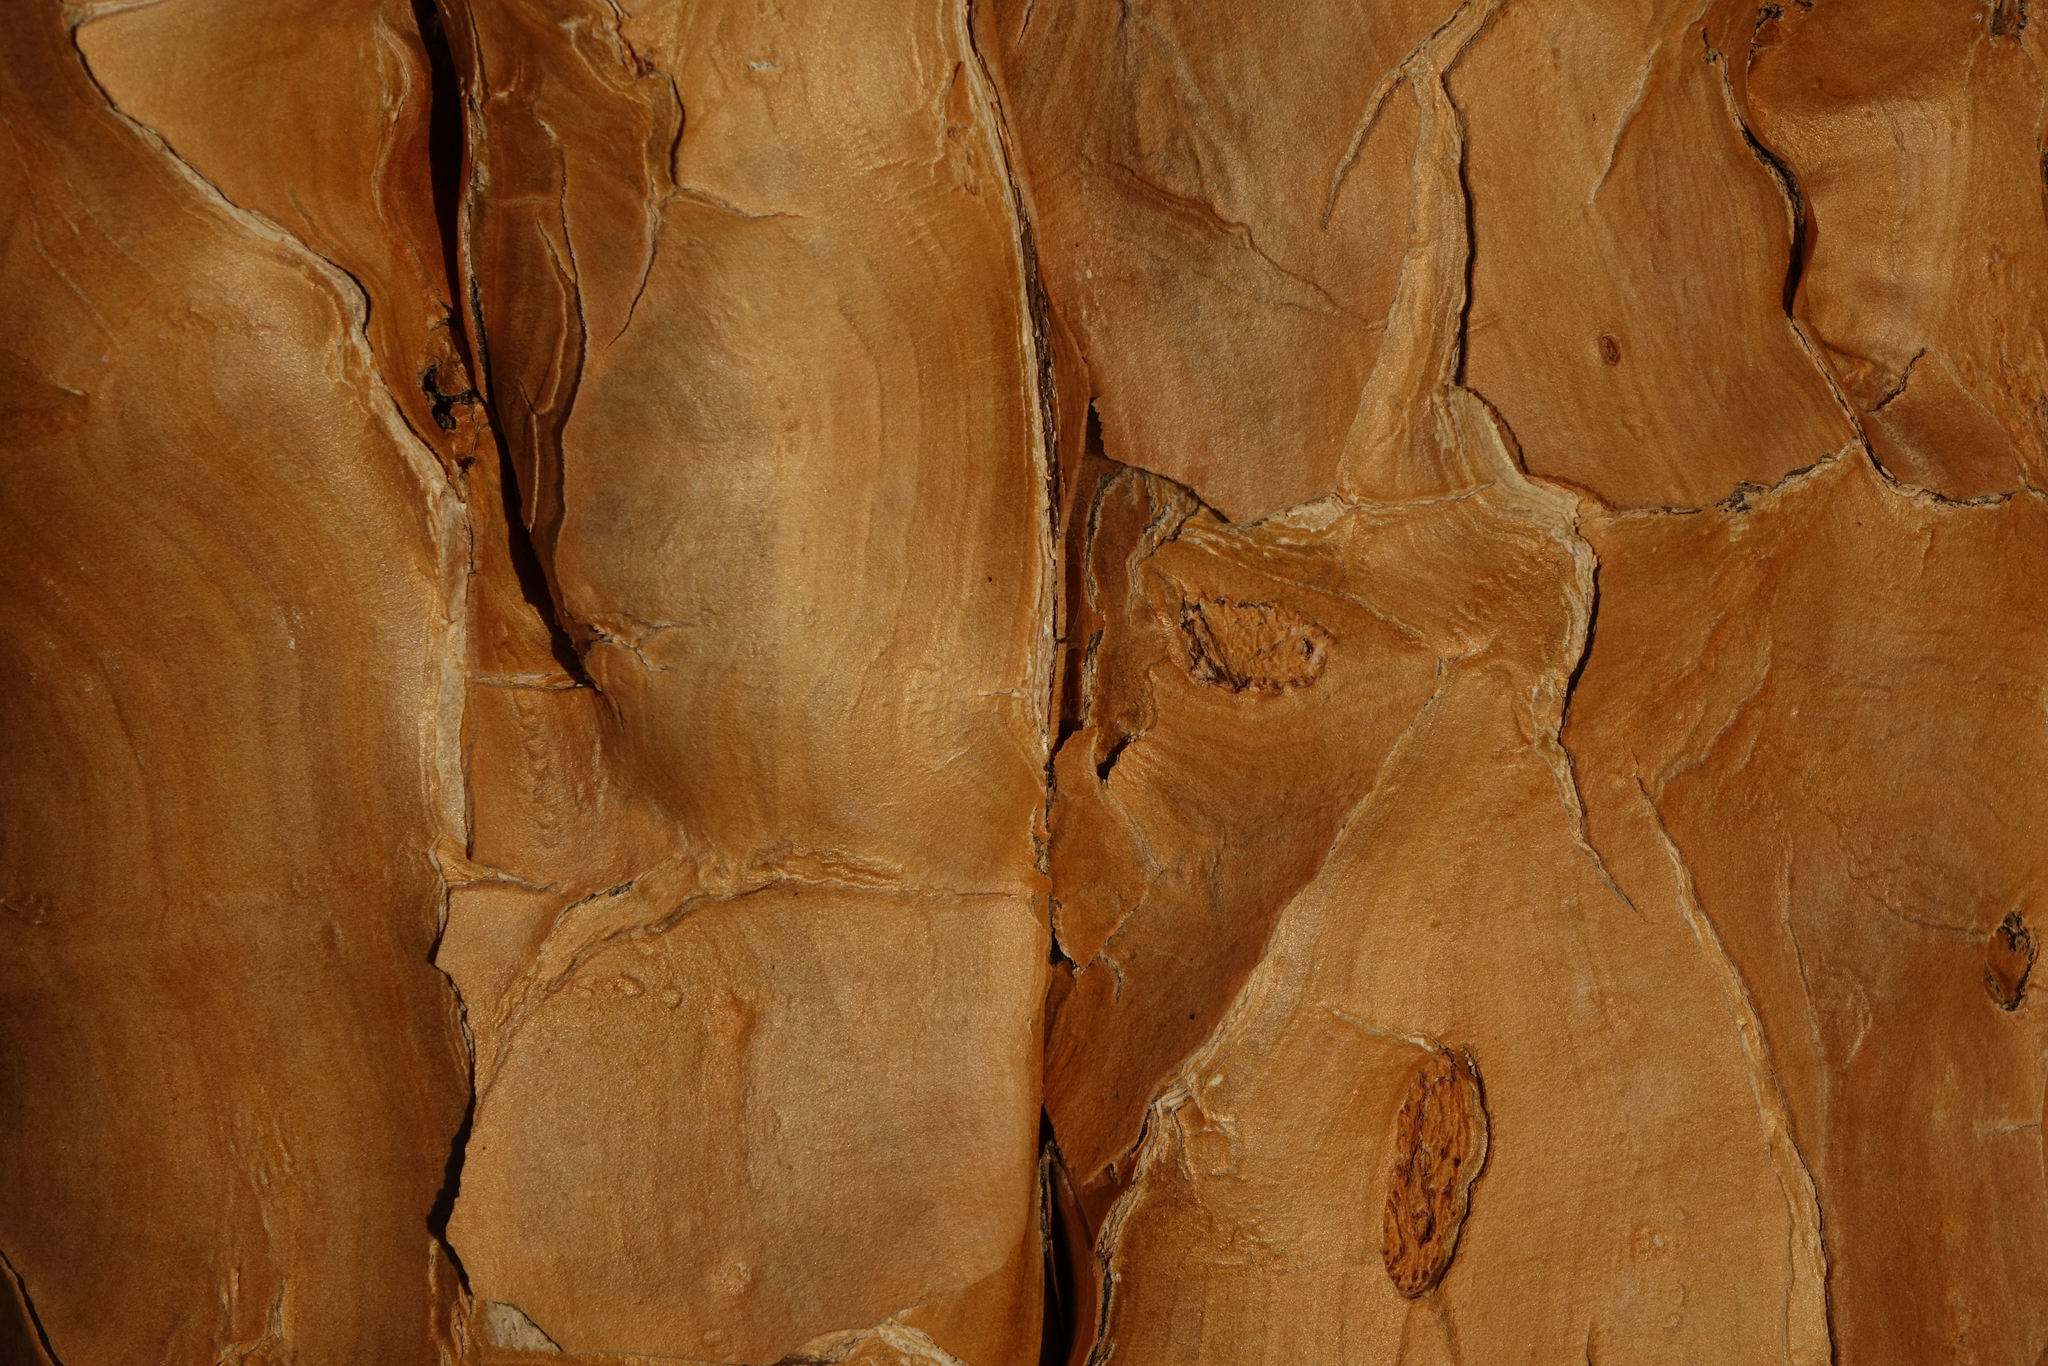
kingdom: Plantae
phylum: Tracheophyta
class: Liliopsida
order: Asparagales
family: Asphodelaceae
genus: Aloidendron
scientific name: Aloidendron dichotomum
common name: Quiver tree
